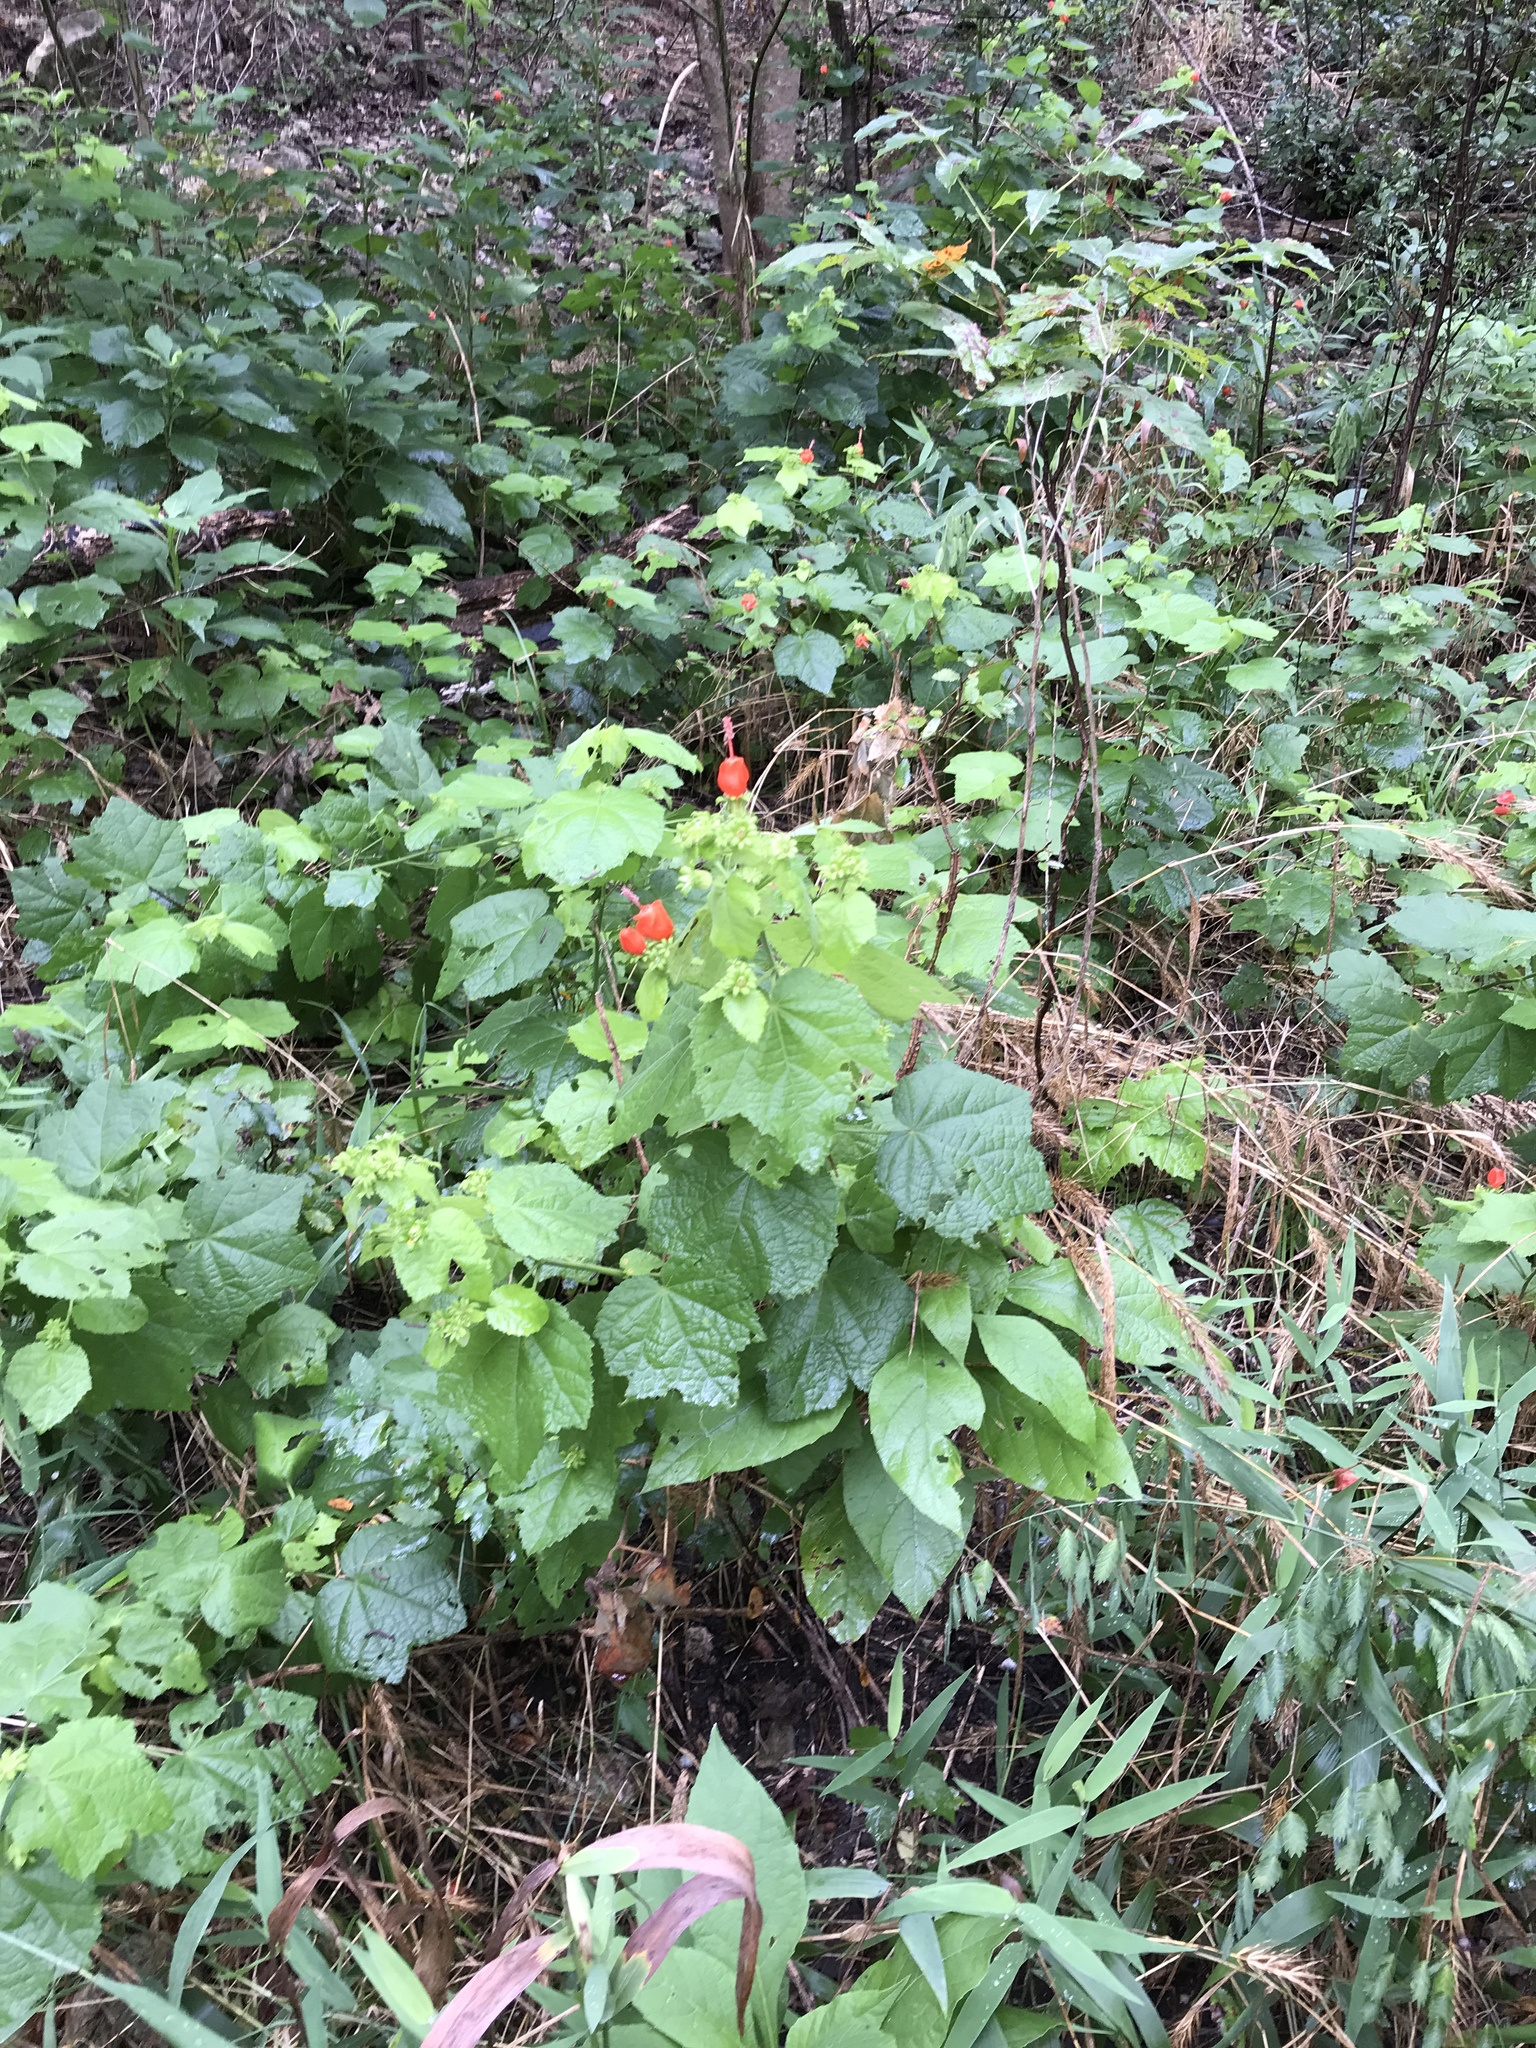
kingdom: Plantae
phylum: Tracheophyta
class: Magnoliopsida
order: Malvales
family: Malvaceae
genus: Malvaviscus
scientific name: Malvaviscus arboreus
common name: Wax mallow
